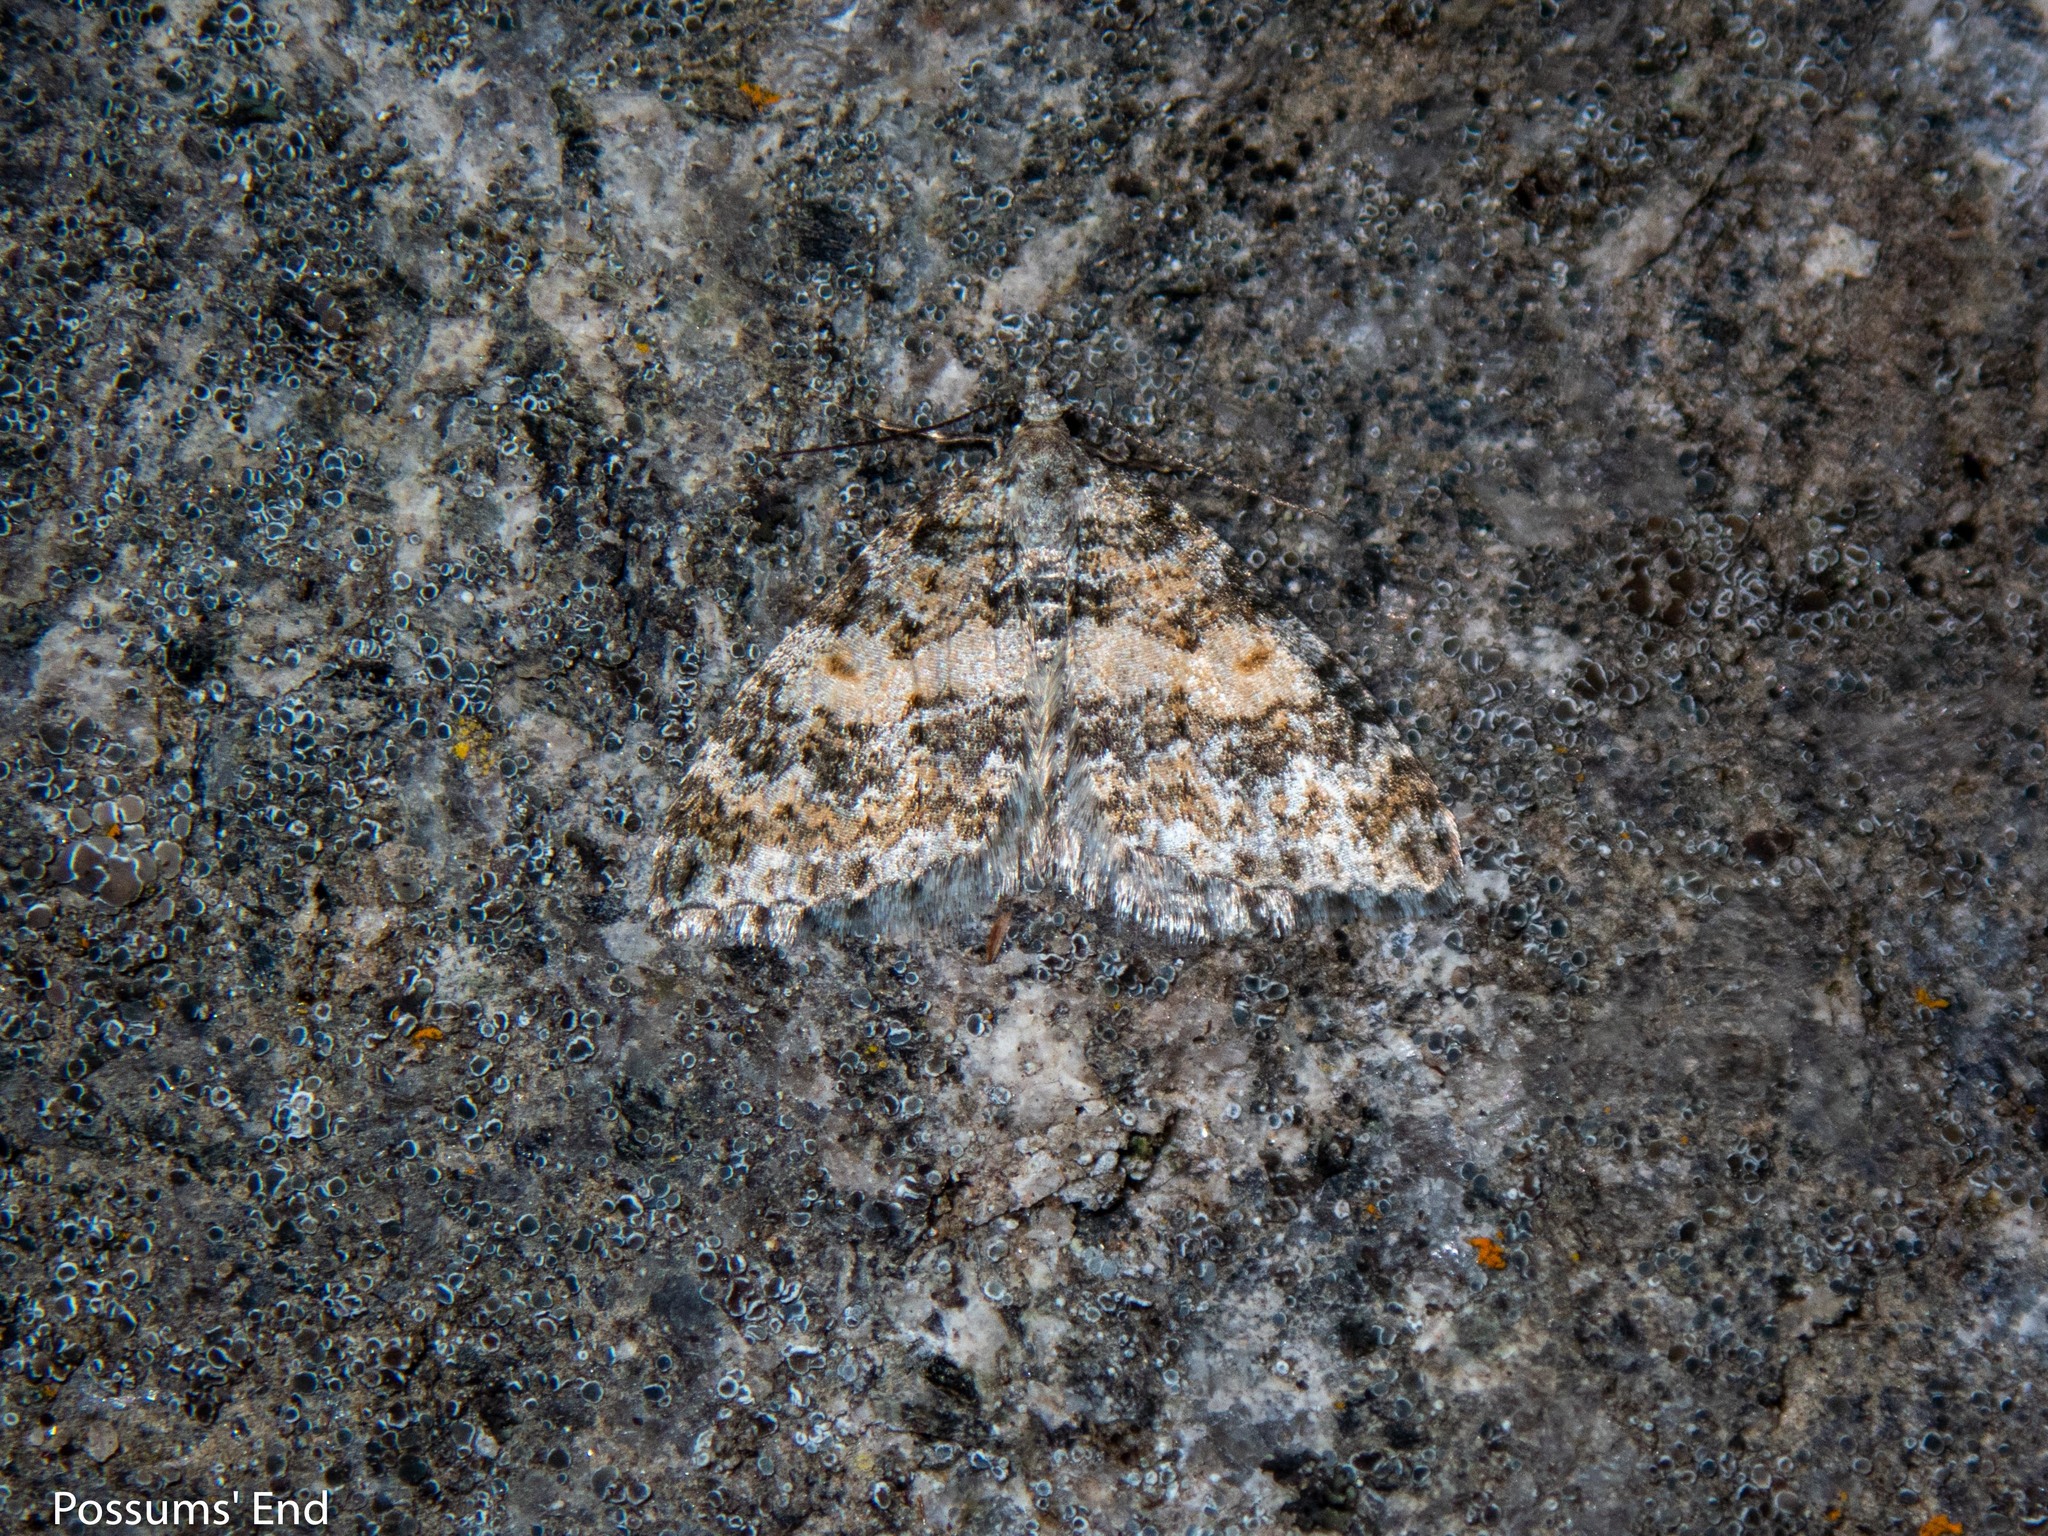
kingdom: Animalia
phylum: Arthropoda
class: Insecta
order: Lepidoptera
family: Geometridae
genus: Helastia
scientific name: Helastia plumbea
